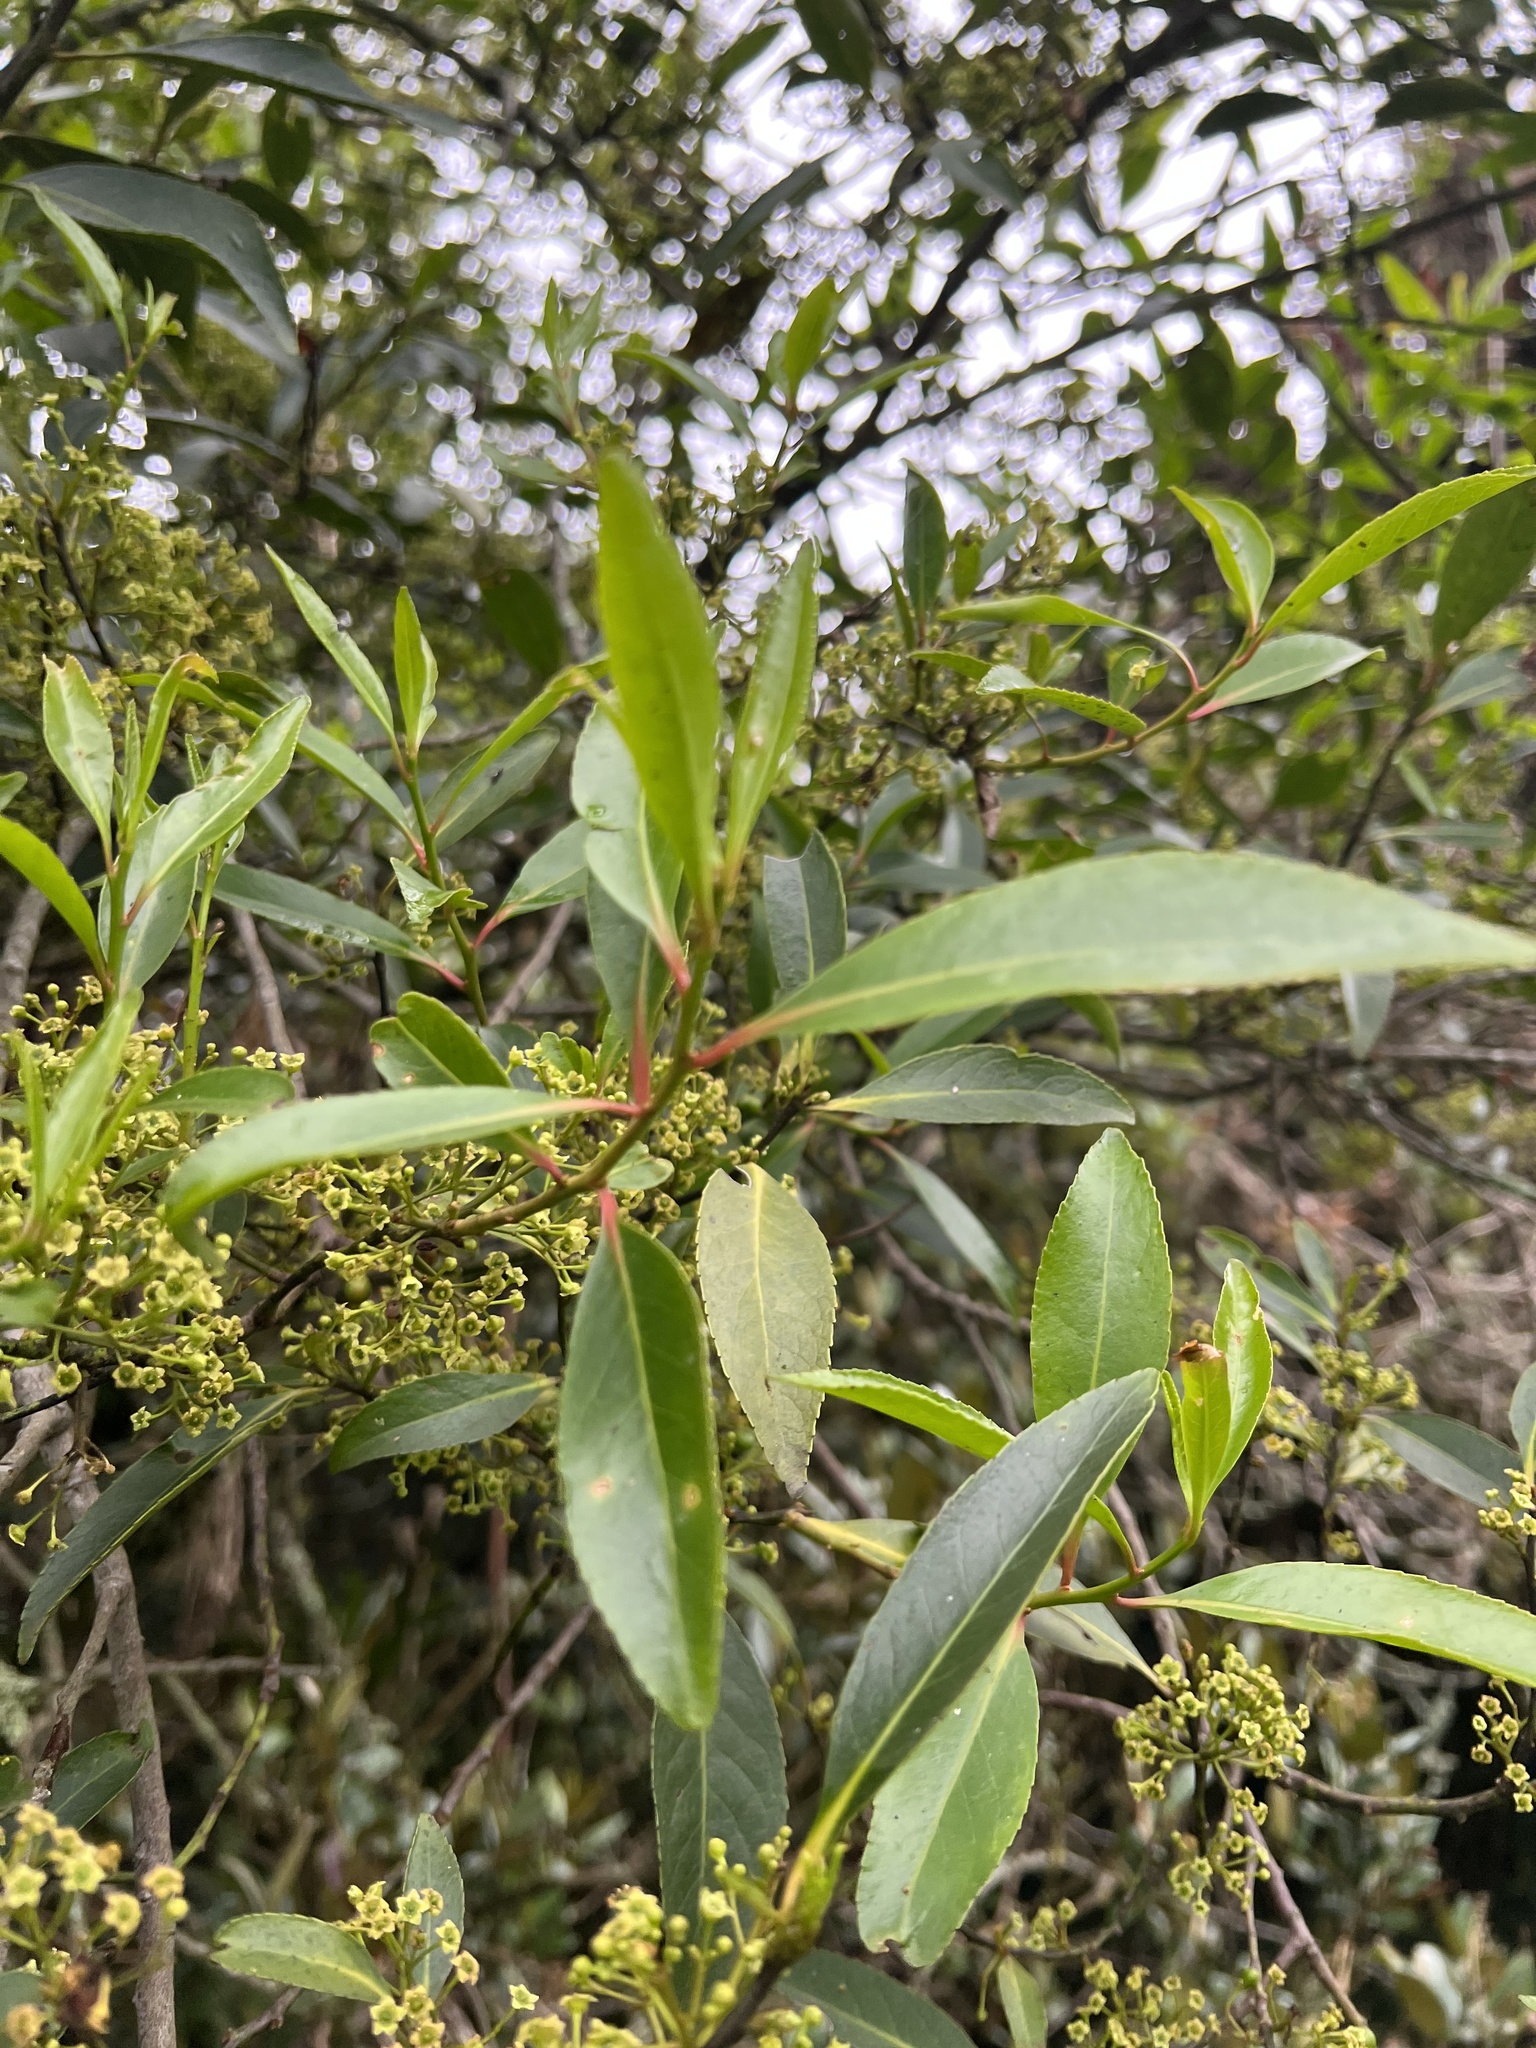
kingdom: Plantae
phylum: Tracheophyta
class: Magnoliopsida
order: Celastrales
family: Celastraceae
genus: Maytenus
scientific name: Maytenus laxiflora
